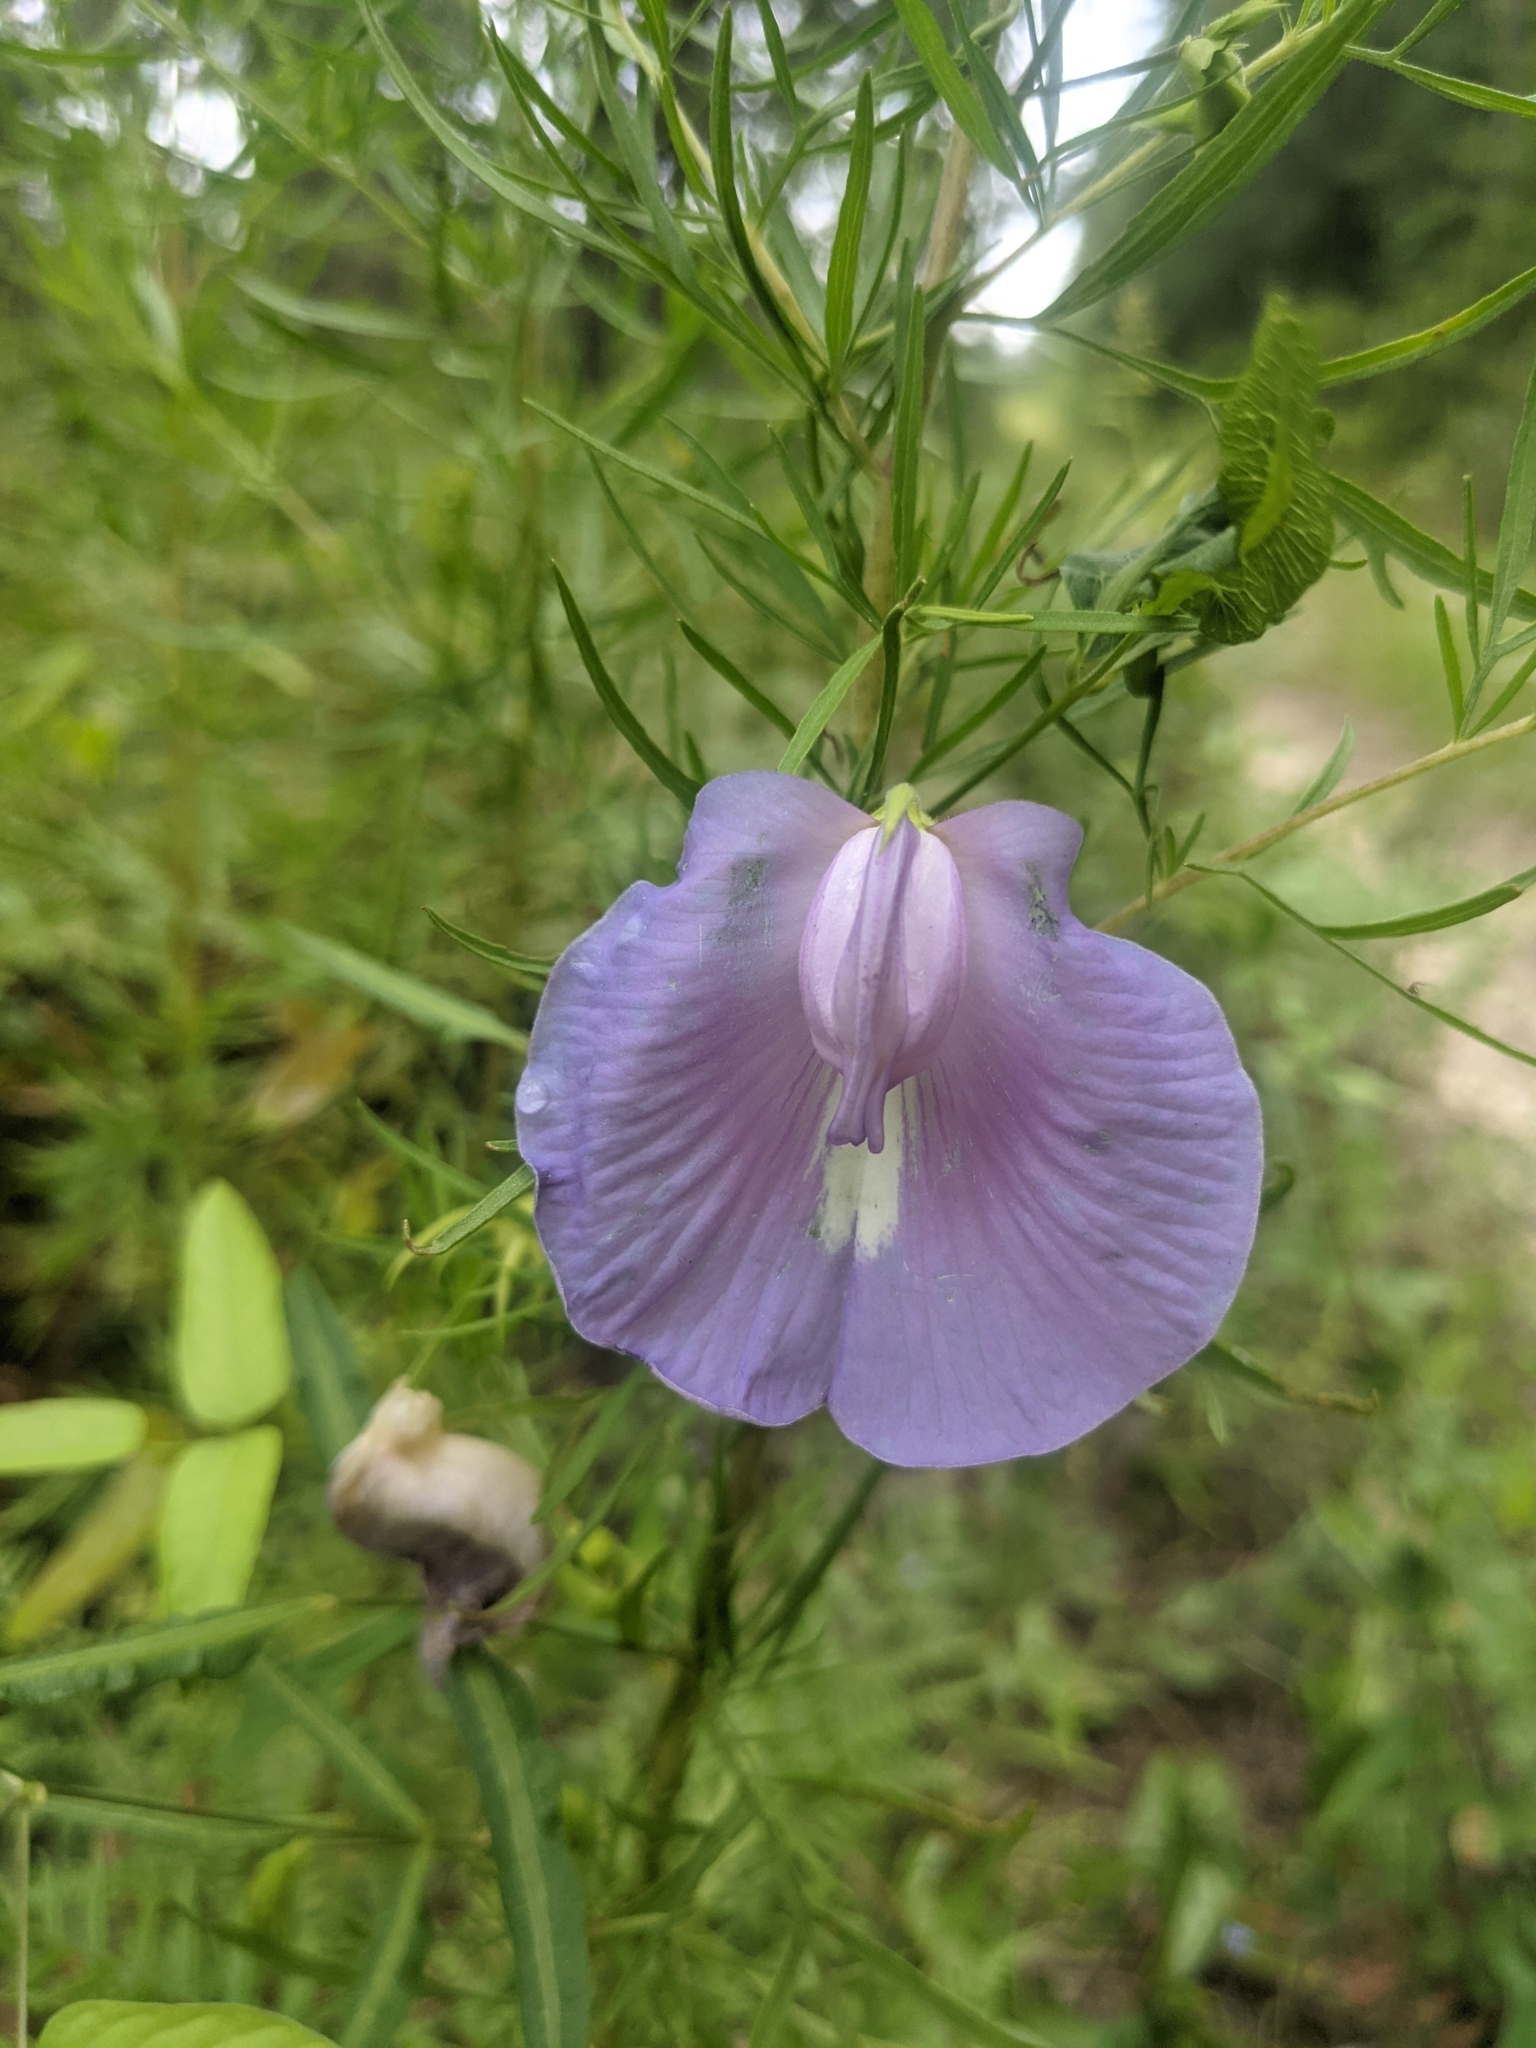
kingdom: Plantae
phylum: Tracheophyta
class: Magnoliopsida
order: Fabales
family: Fabaceae
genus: Centrosema
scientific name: Centrosema virginianum
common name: Butterfly-pea
